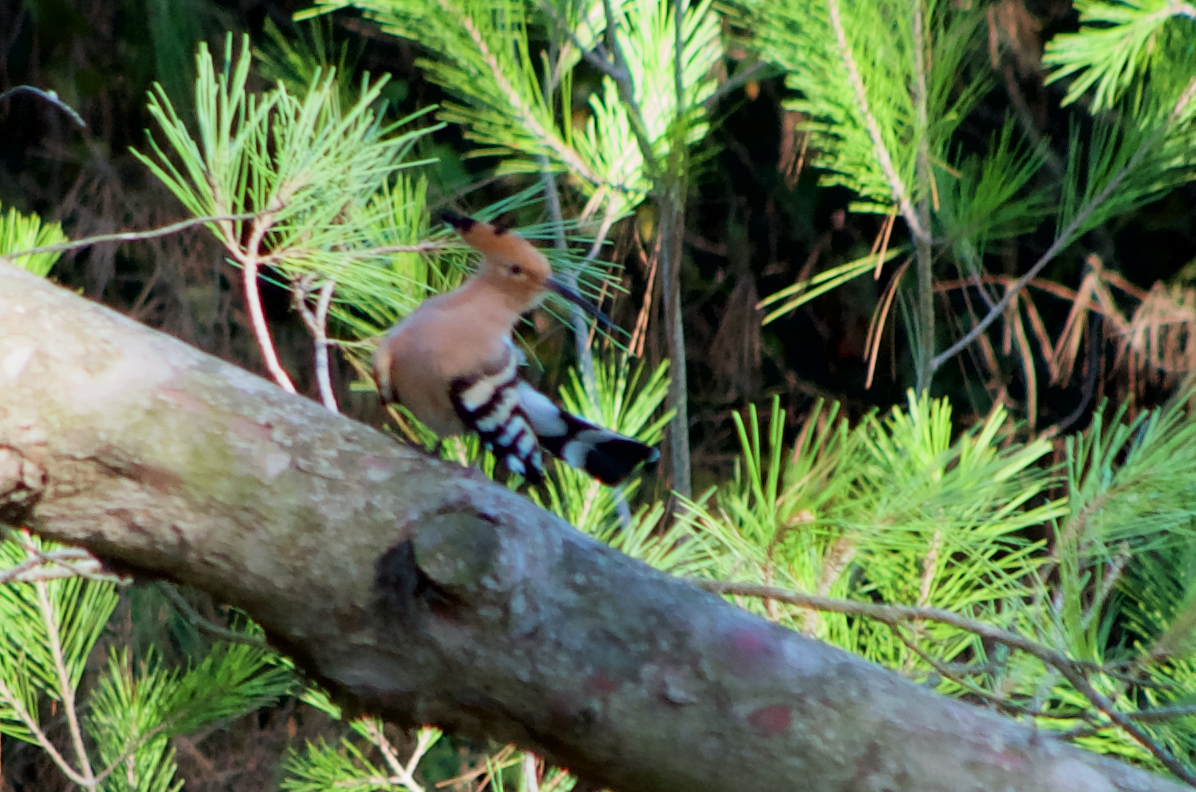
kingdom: Animalia
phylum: Chordata
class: Aves
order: Bucerotiformes
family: Upupidae
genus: Upupa
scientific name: Upupa epops
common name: Eurasian hoopoe
